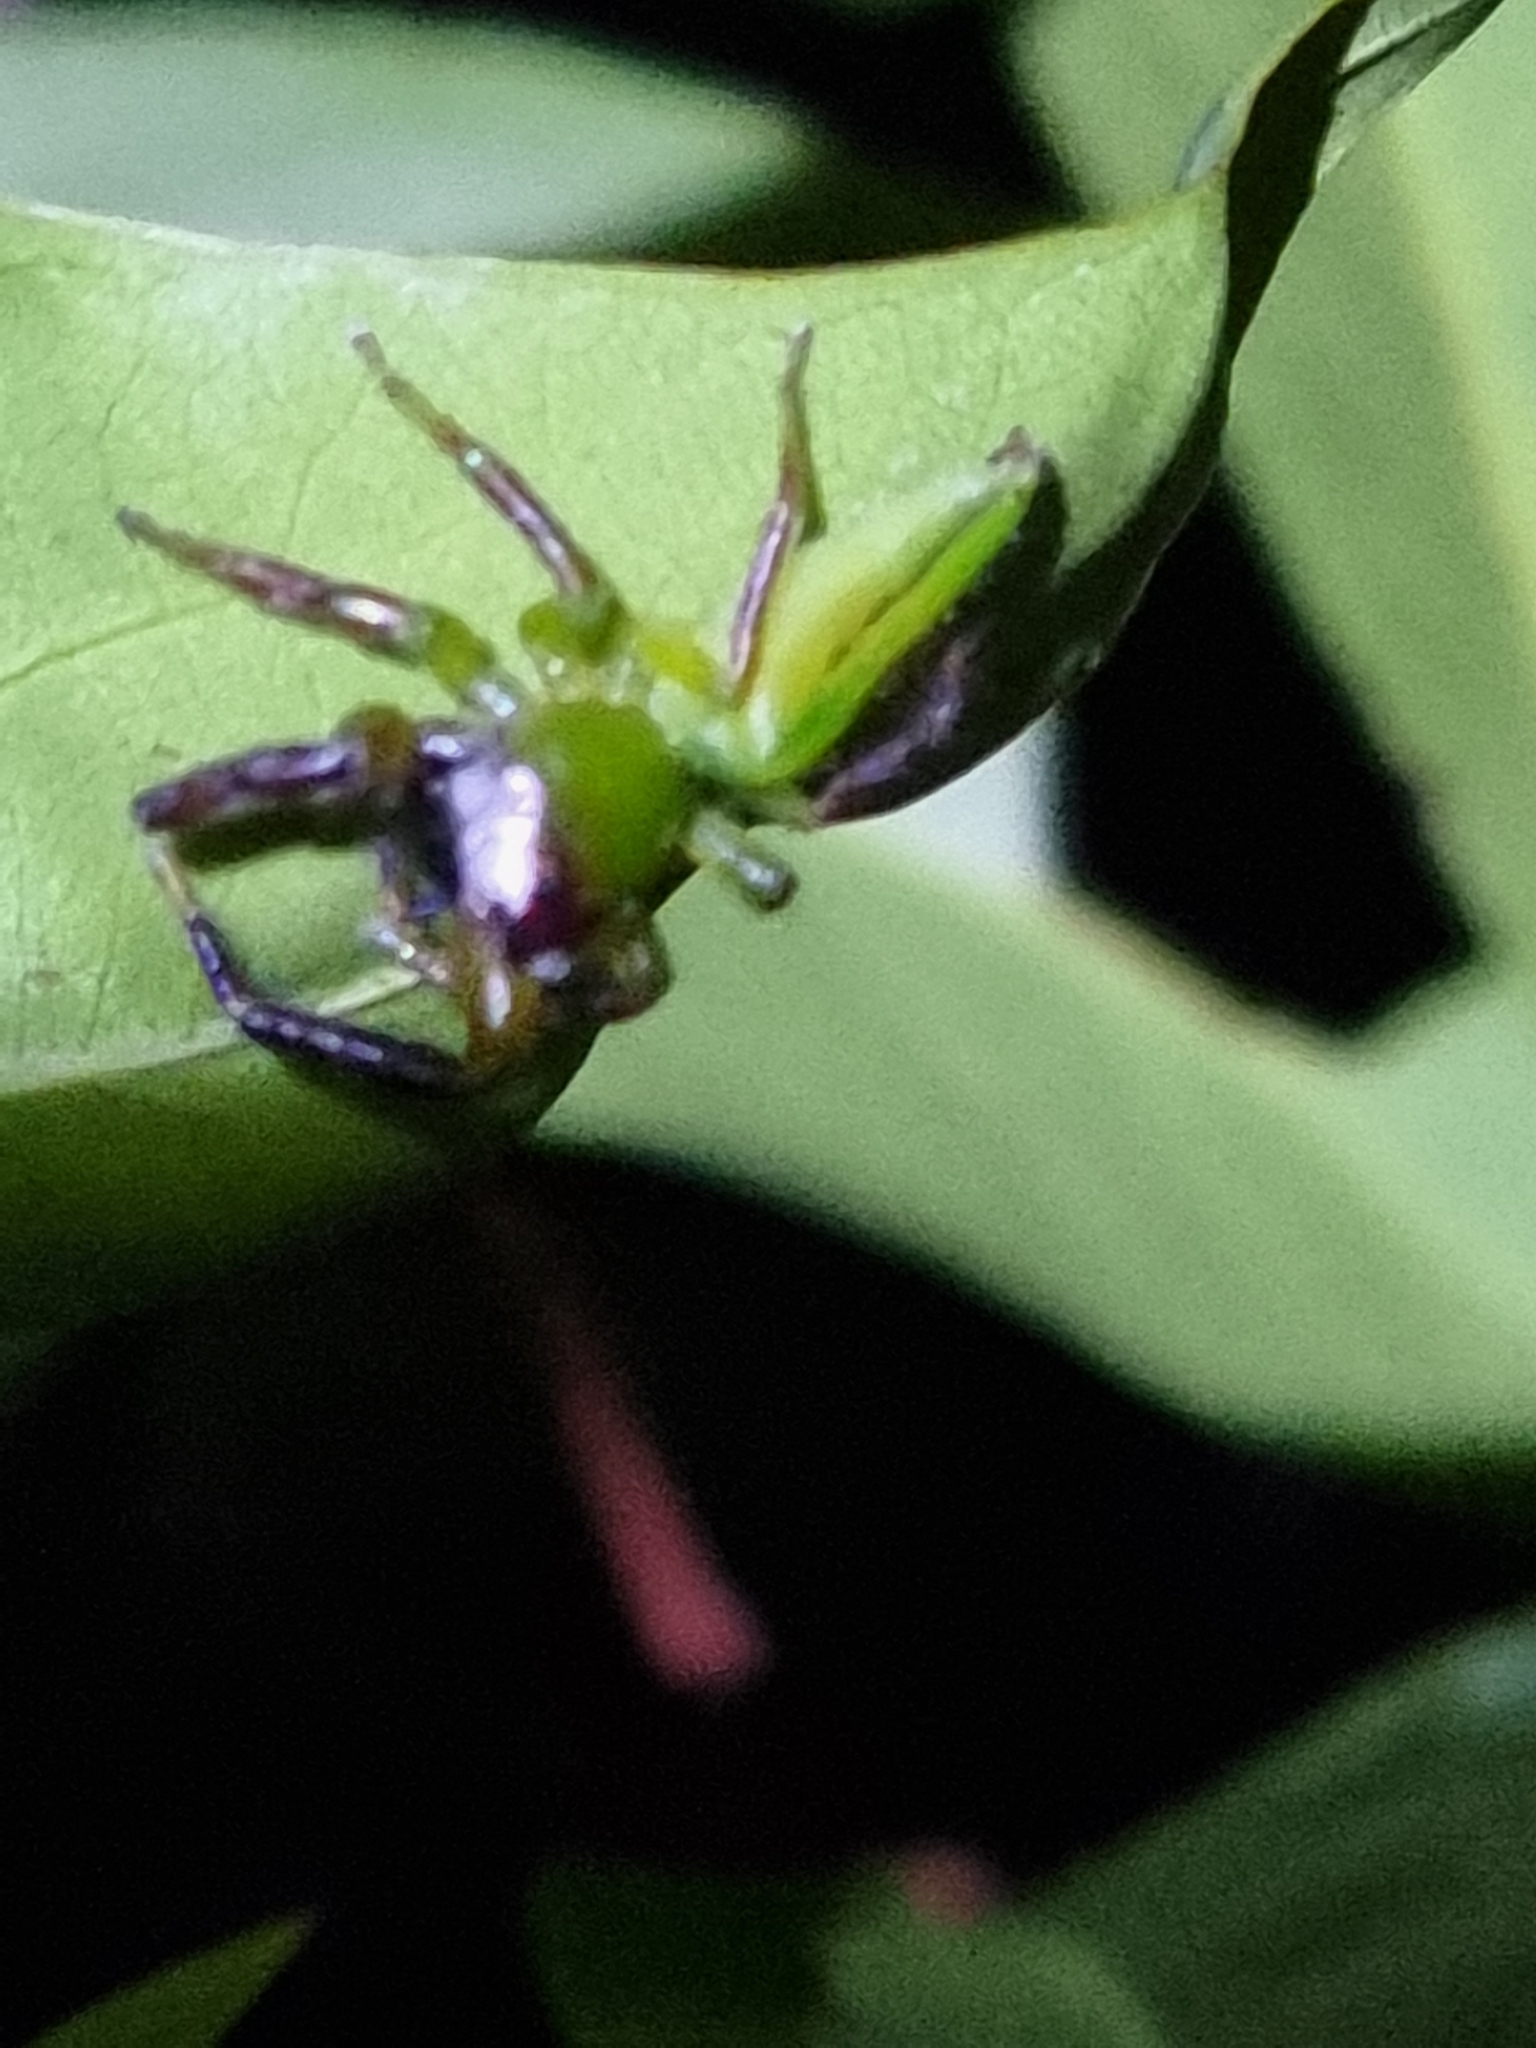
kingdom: Animalia
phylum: Arthropoda
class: Arachnida
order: Araneae
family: Salticidae
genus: Mopsus
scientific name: Mopsus mormon
